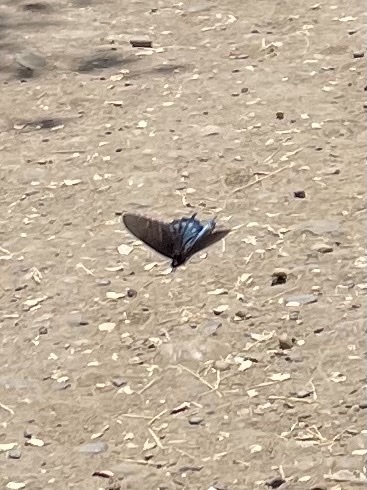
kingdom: Animalia
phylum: Arthropoda
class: Insecta
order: Lepidoptera
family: Papilionidae
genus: Battus
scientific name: Battus philenor
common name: Pipevine swallowtail
